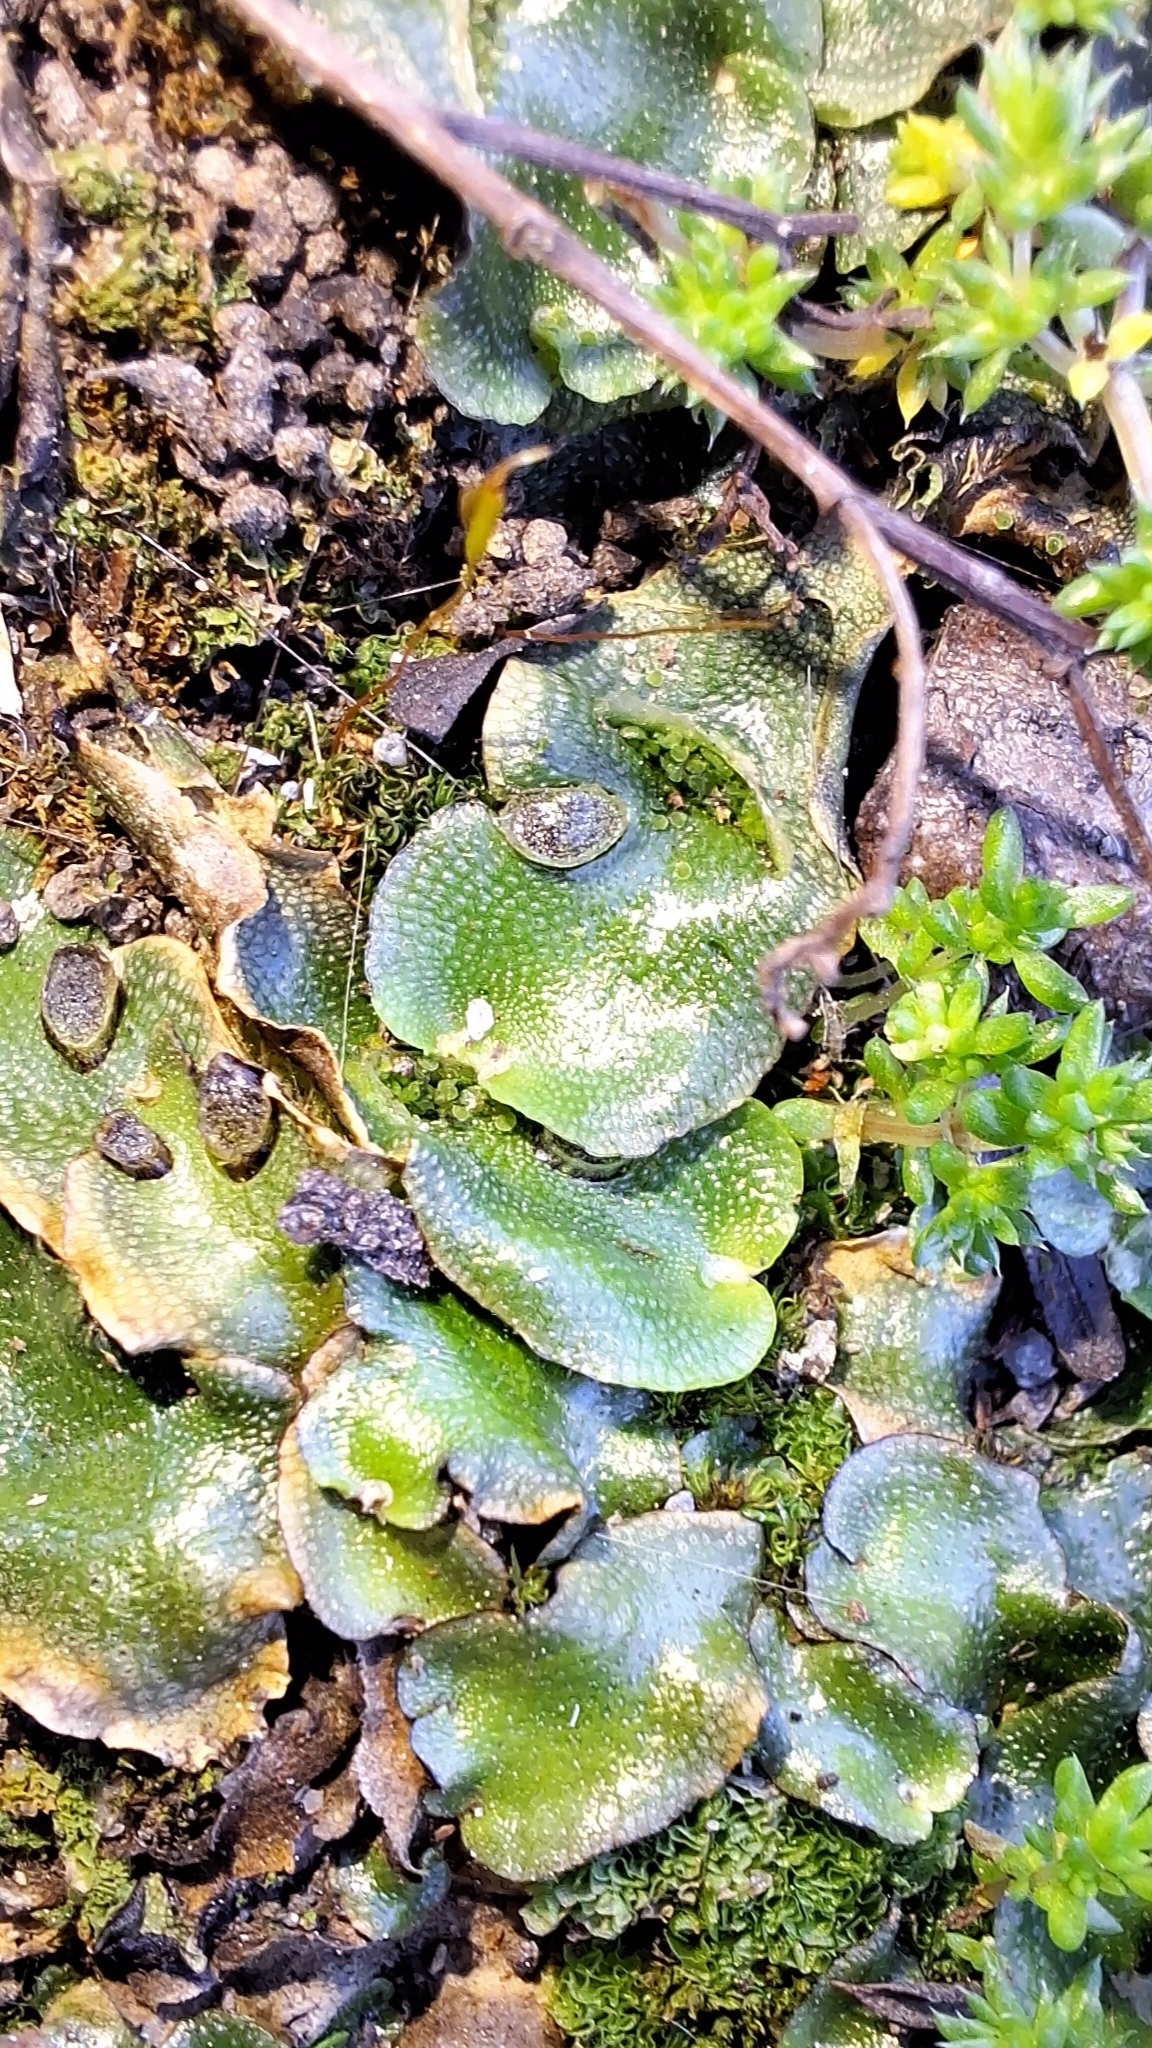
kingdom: Plantae
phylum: Marchantiophyta
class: Marchantiopsida
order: Lunulariales
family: Lunulariaceae
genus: Lunularia
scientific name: Lunularia cruciata
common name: Crescent-cup liverwort
